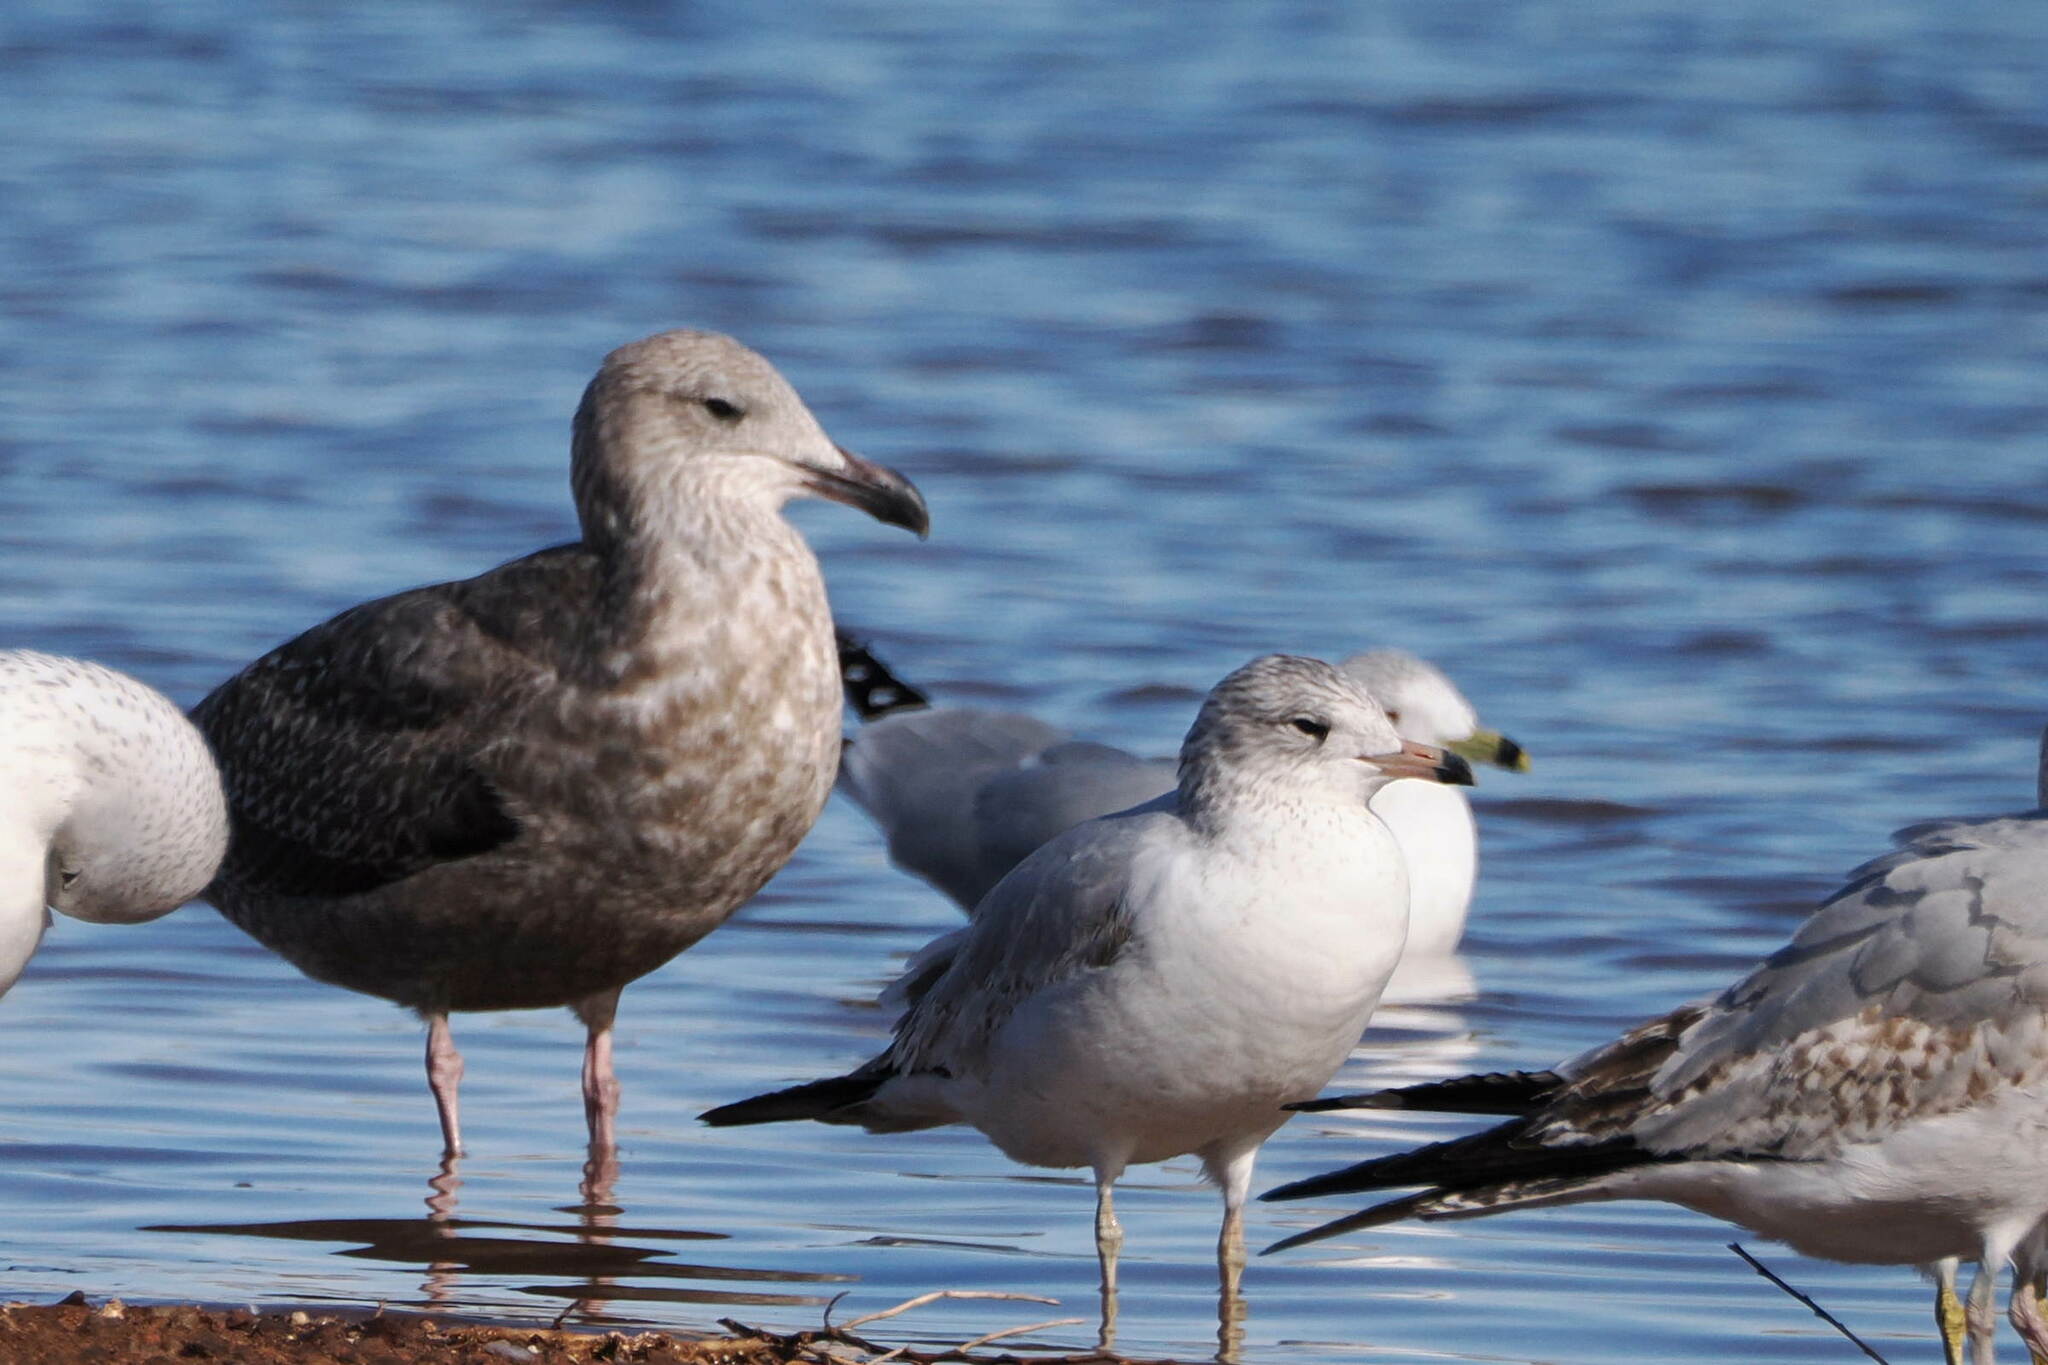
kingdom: Animalia
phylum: Chordata
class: Aves
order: Charadriiformes
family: Laridae
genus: Larus
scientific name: Larus argentatus
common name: Herring gull
